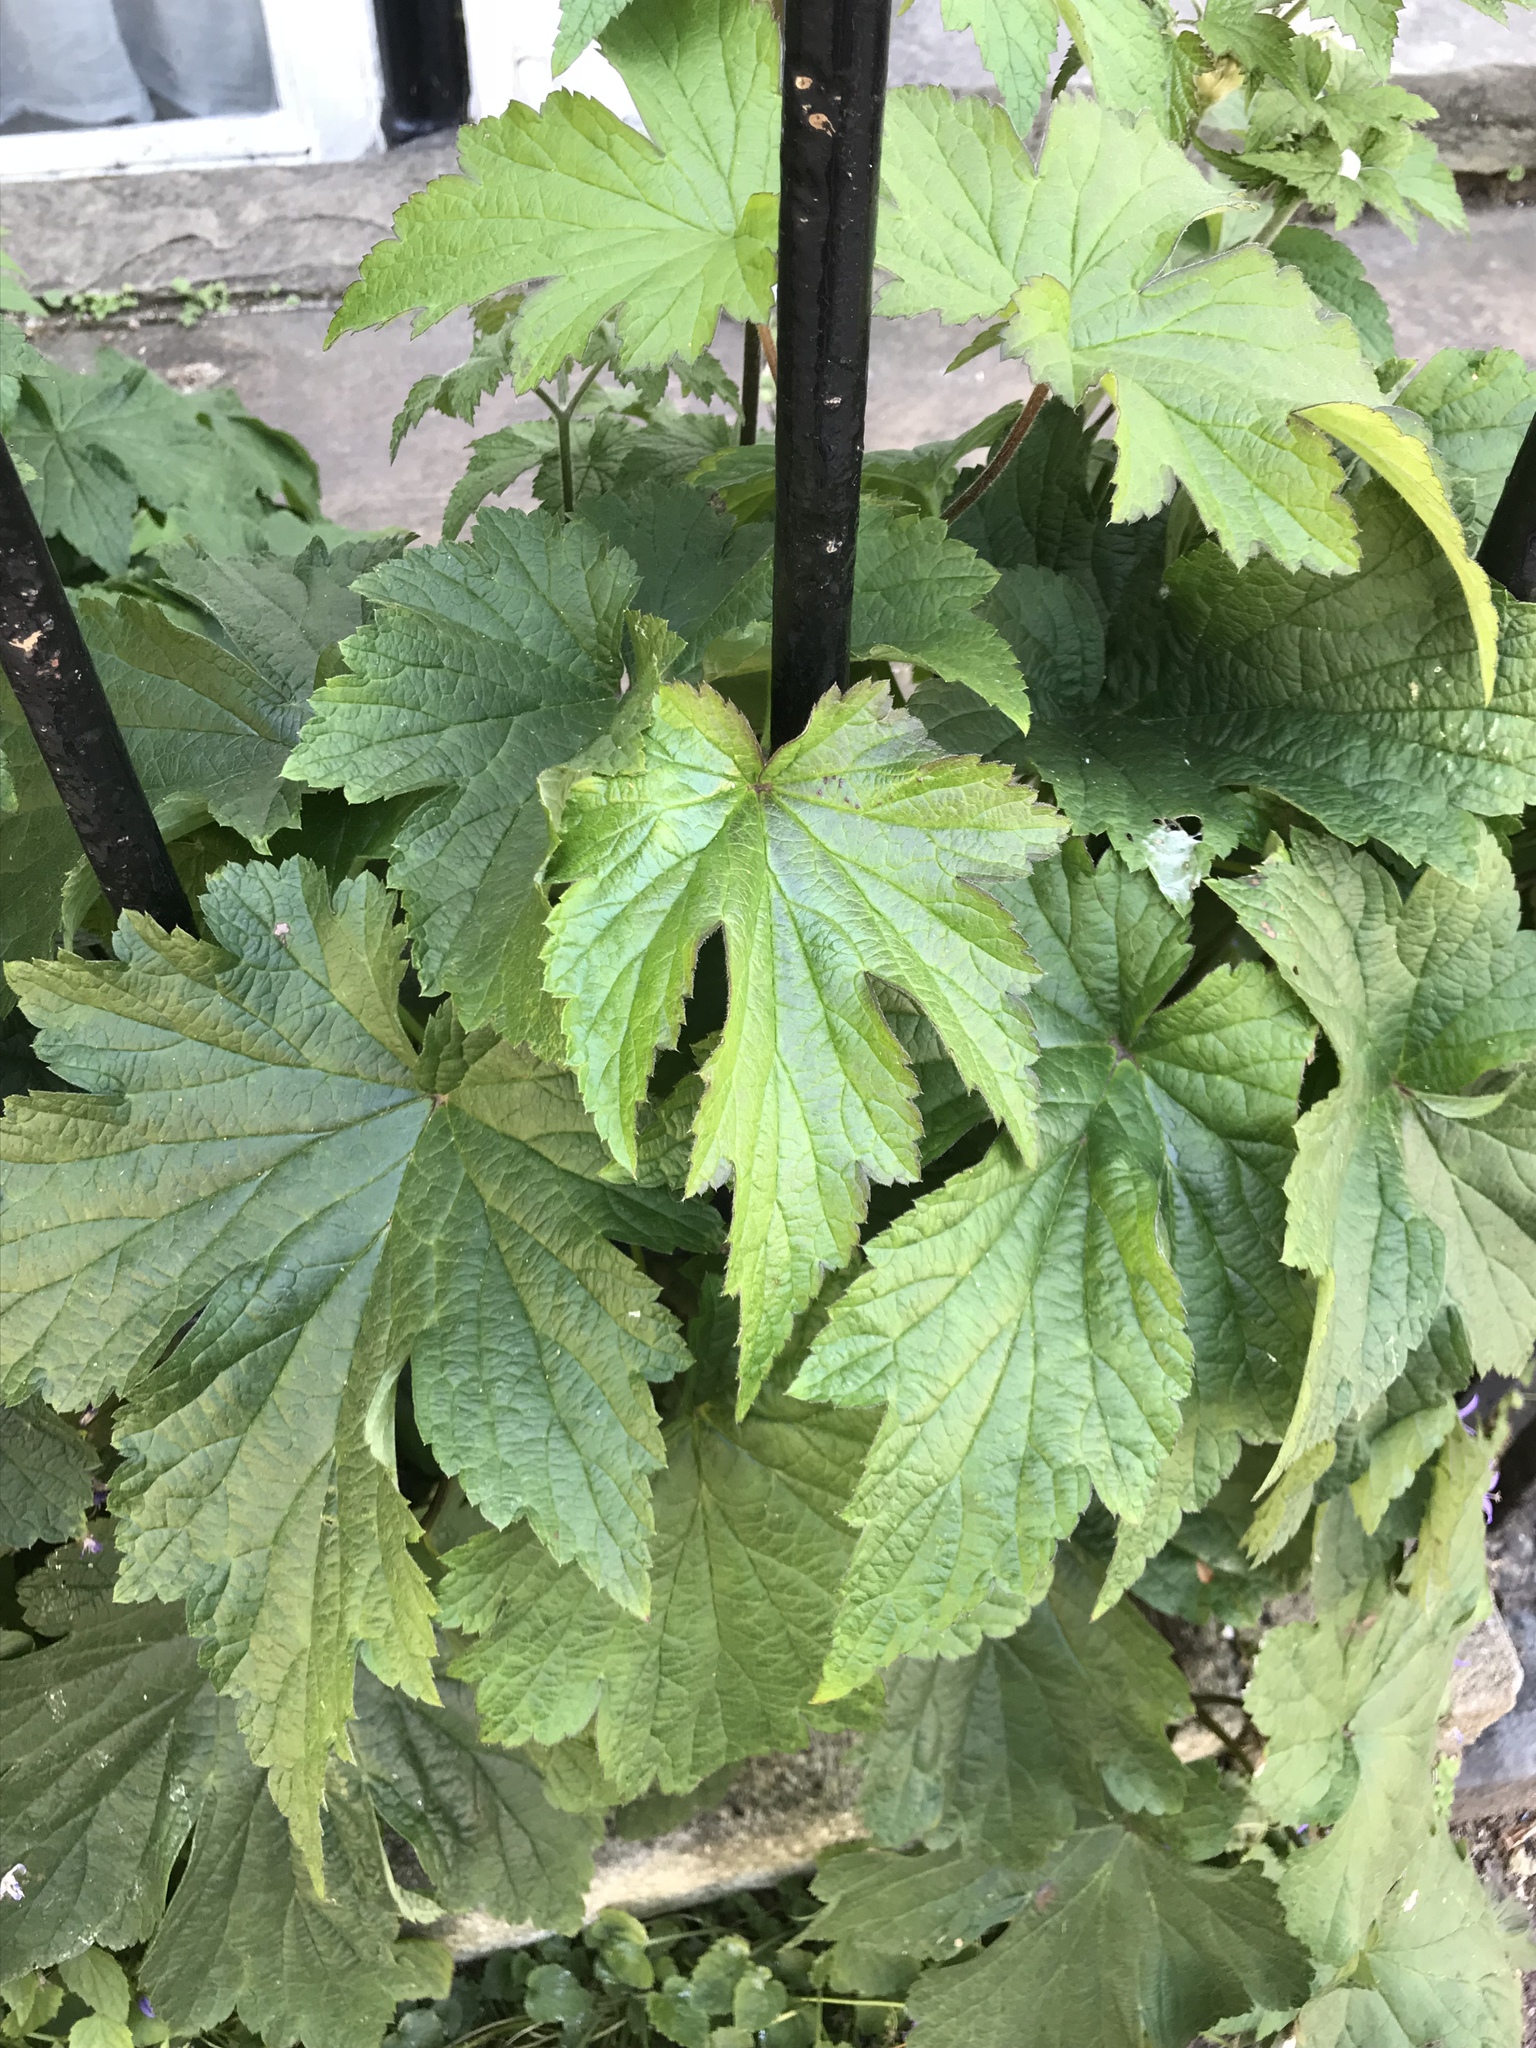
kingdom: Plantae
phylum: Tracheophyta
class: Magnoliopsida
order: Ranunculales
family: Ranunculaceae
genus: Eriocapitella
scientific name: Eriocapitella hybrida
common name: Japanese anemone
